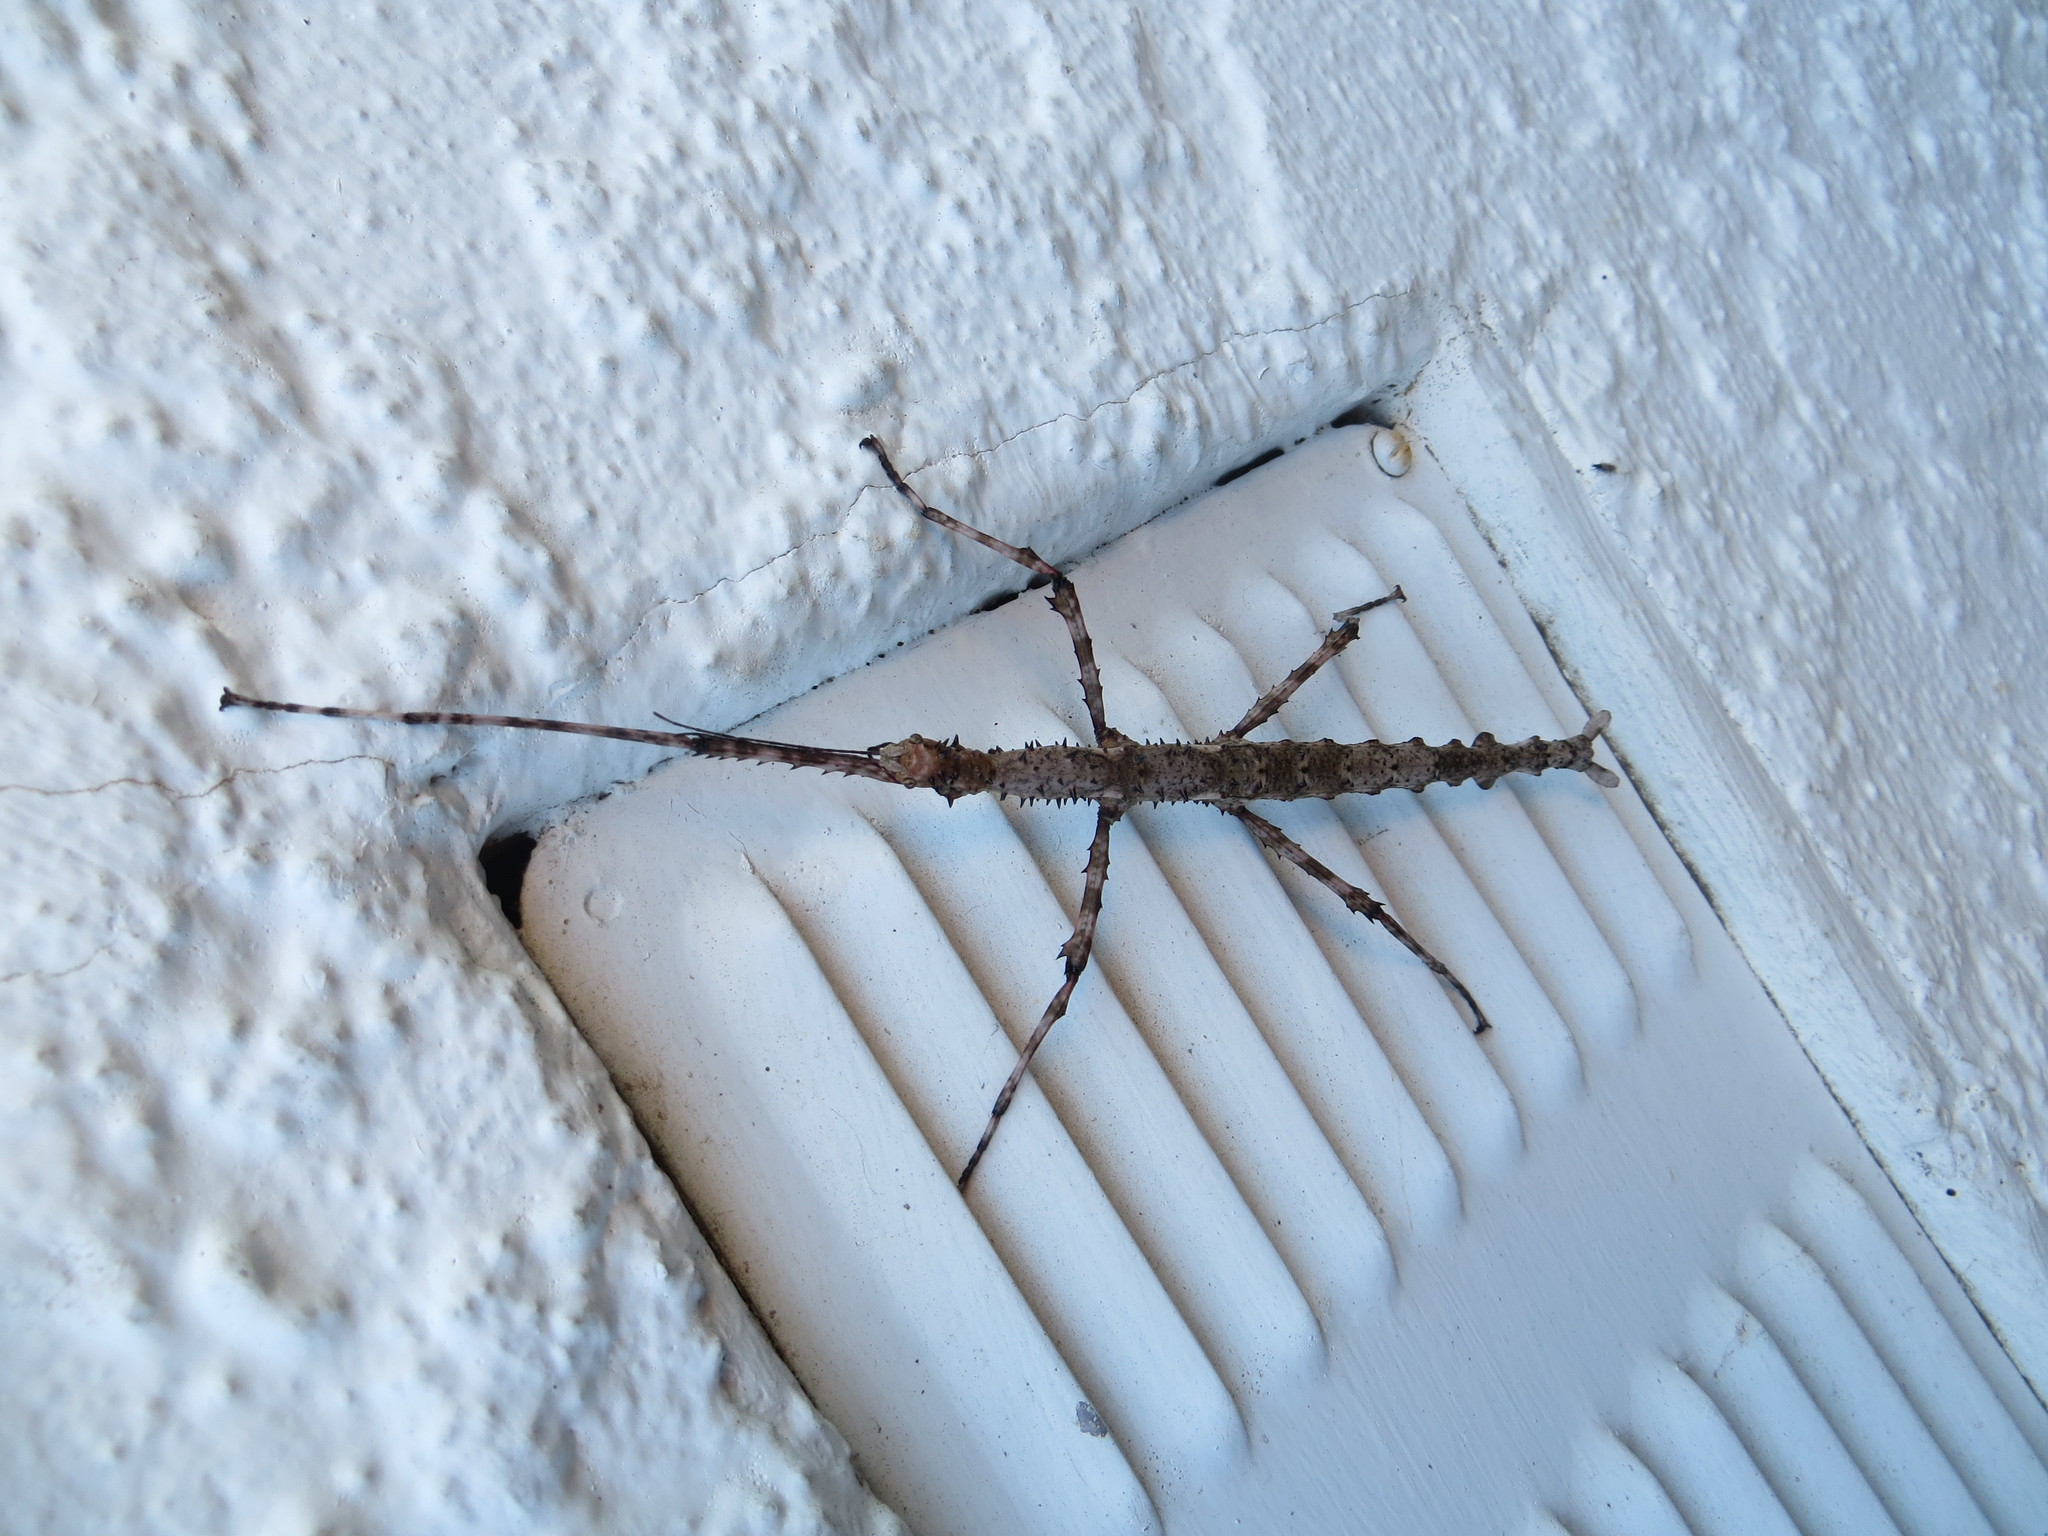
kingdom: Animalia
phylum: Arthropoda
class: Insecta
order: Phasmida
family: Phasmatidae
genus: Acanthoxyla
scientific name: Acanthoxyla geisovii
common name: Prickly stick insect
